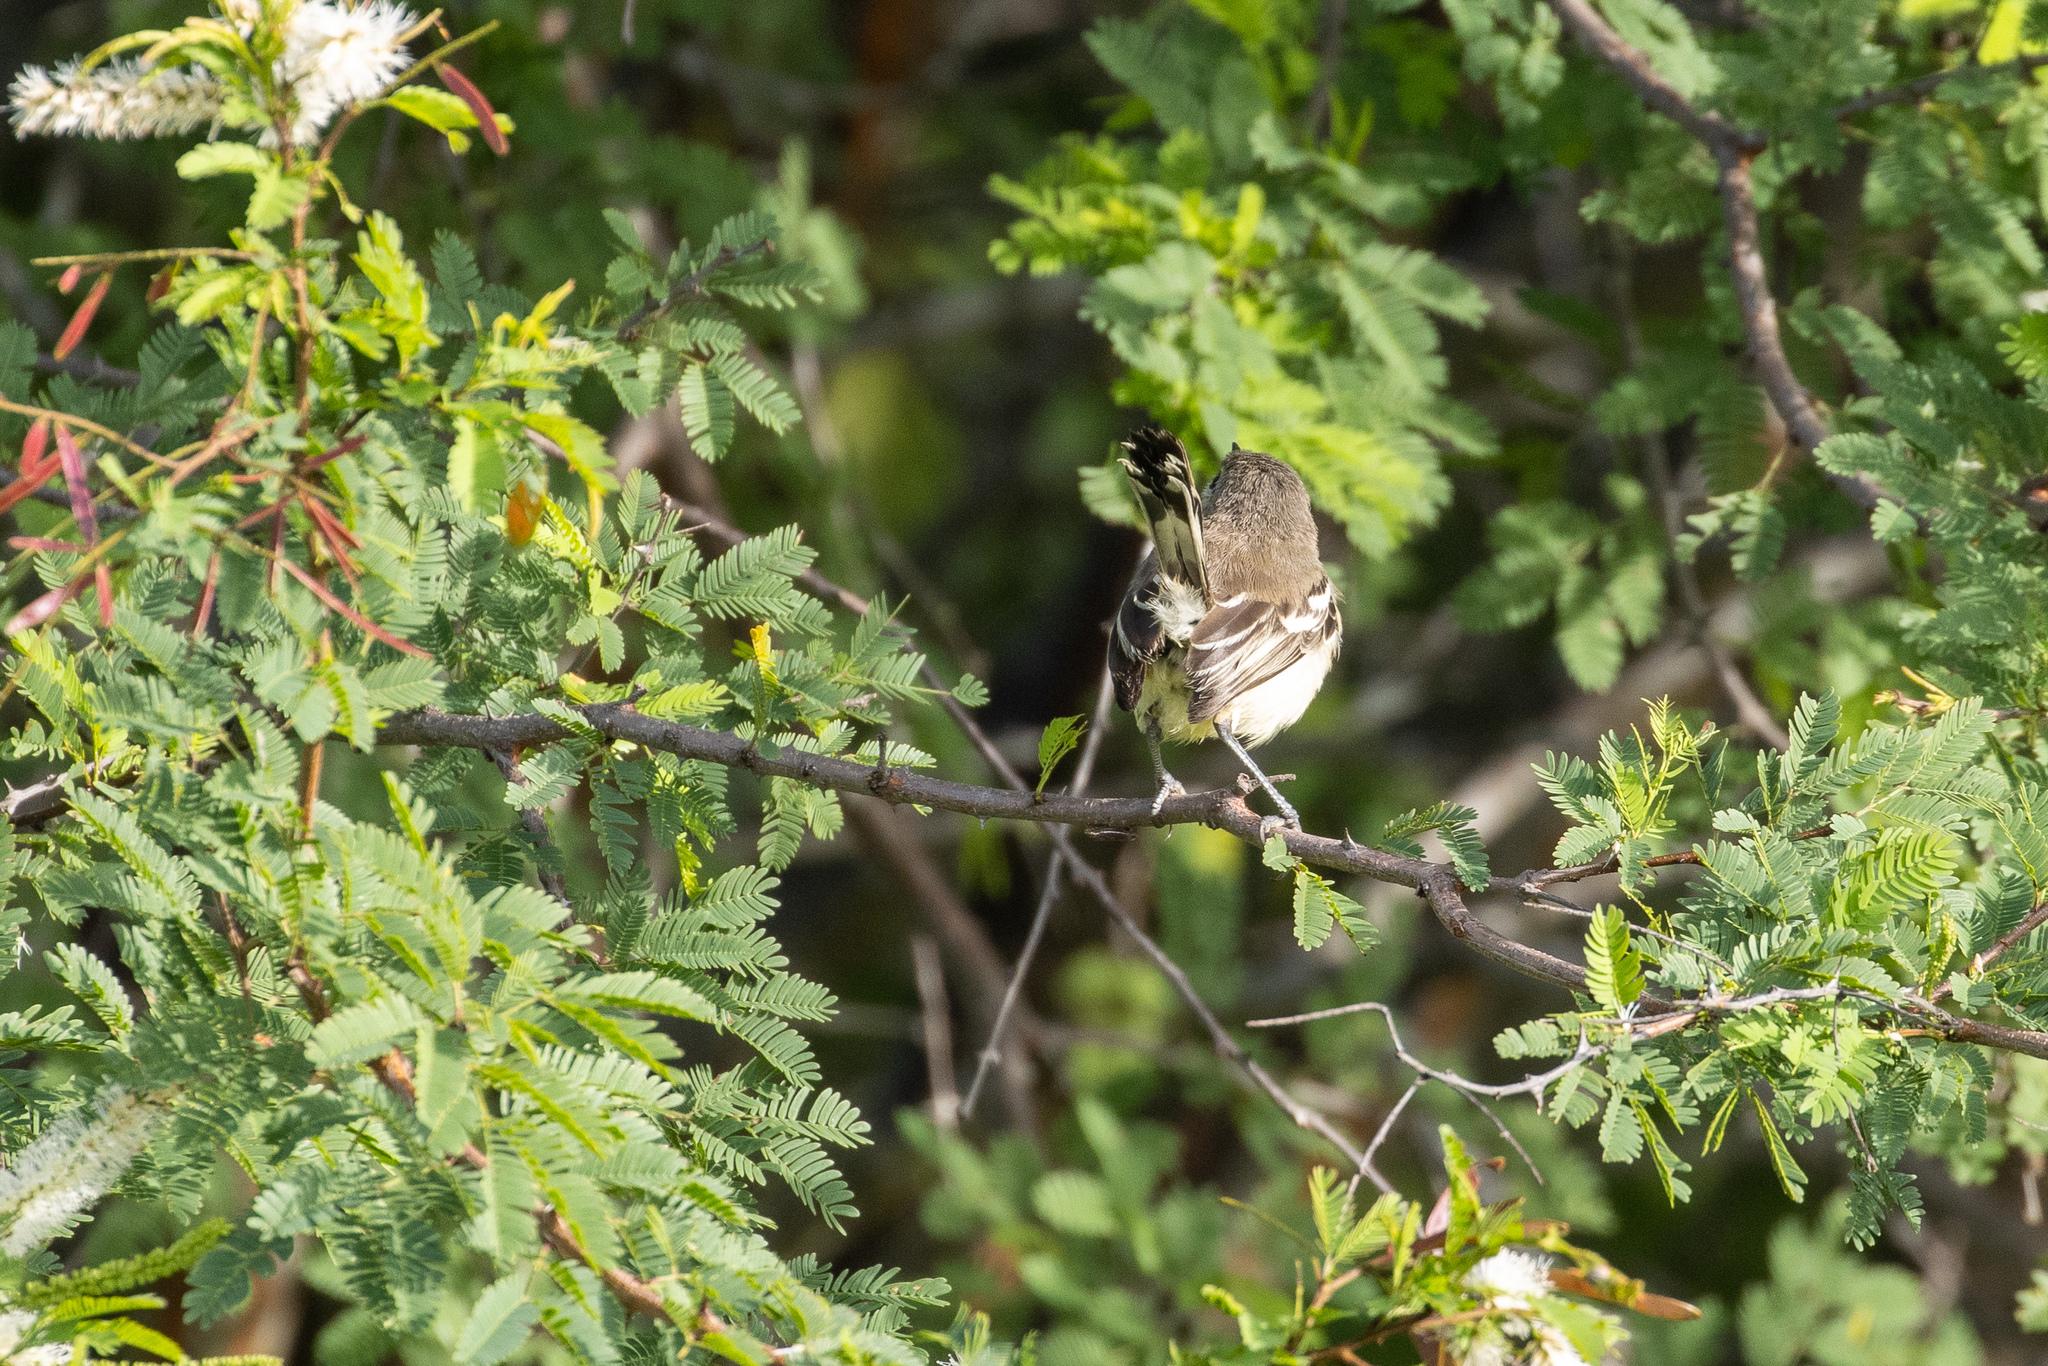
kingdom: Animalia
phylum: Chordata
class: Aves
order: Passeriformes
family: Tyrannidae
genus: Stigmatura
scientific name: Stigmatura budytoides
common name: Greater wagtail-tyrant
